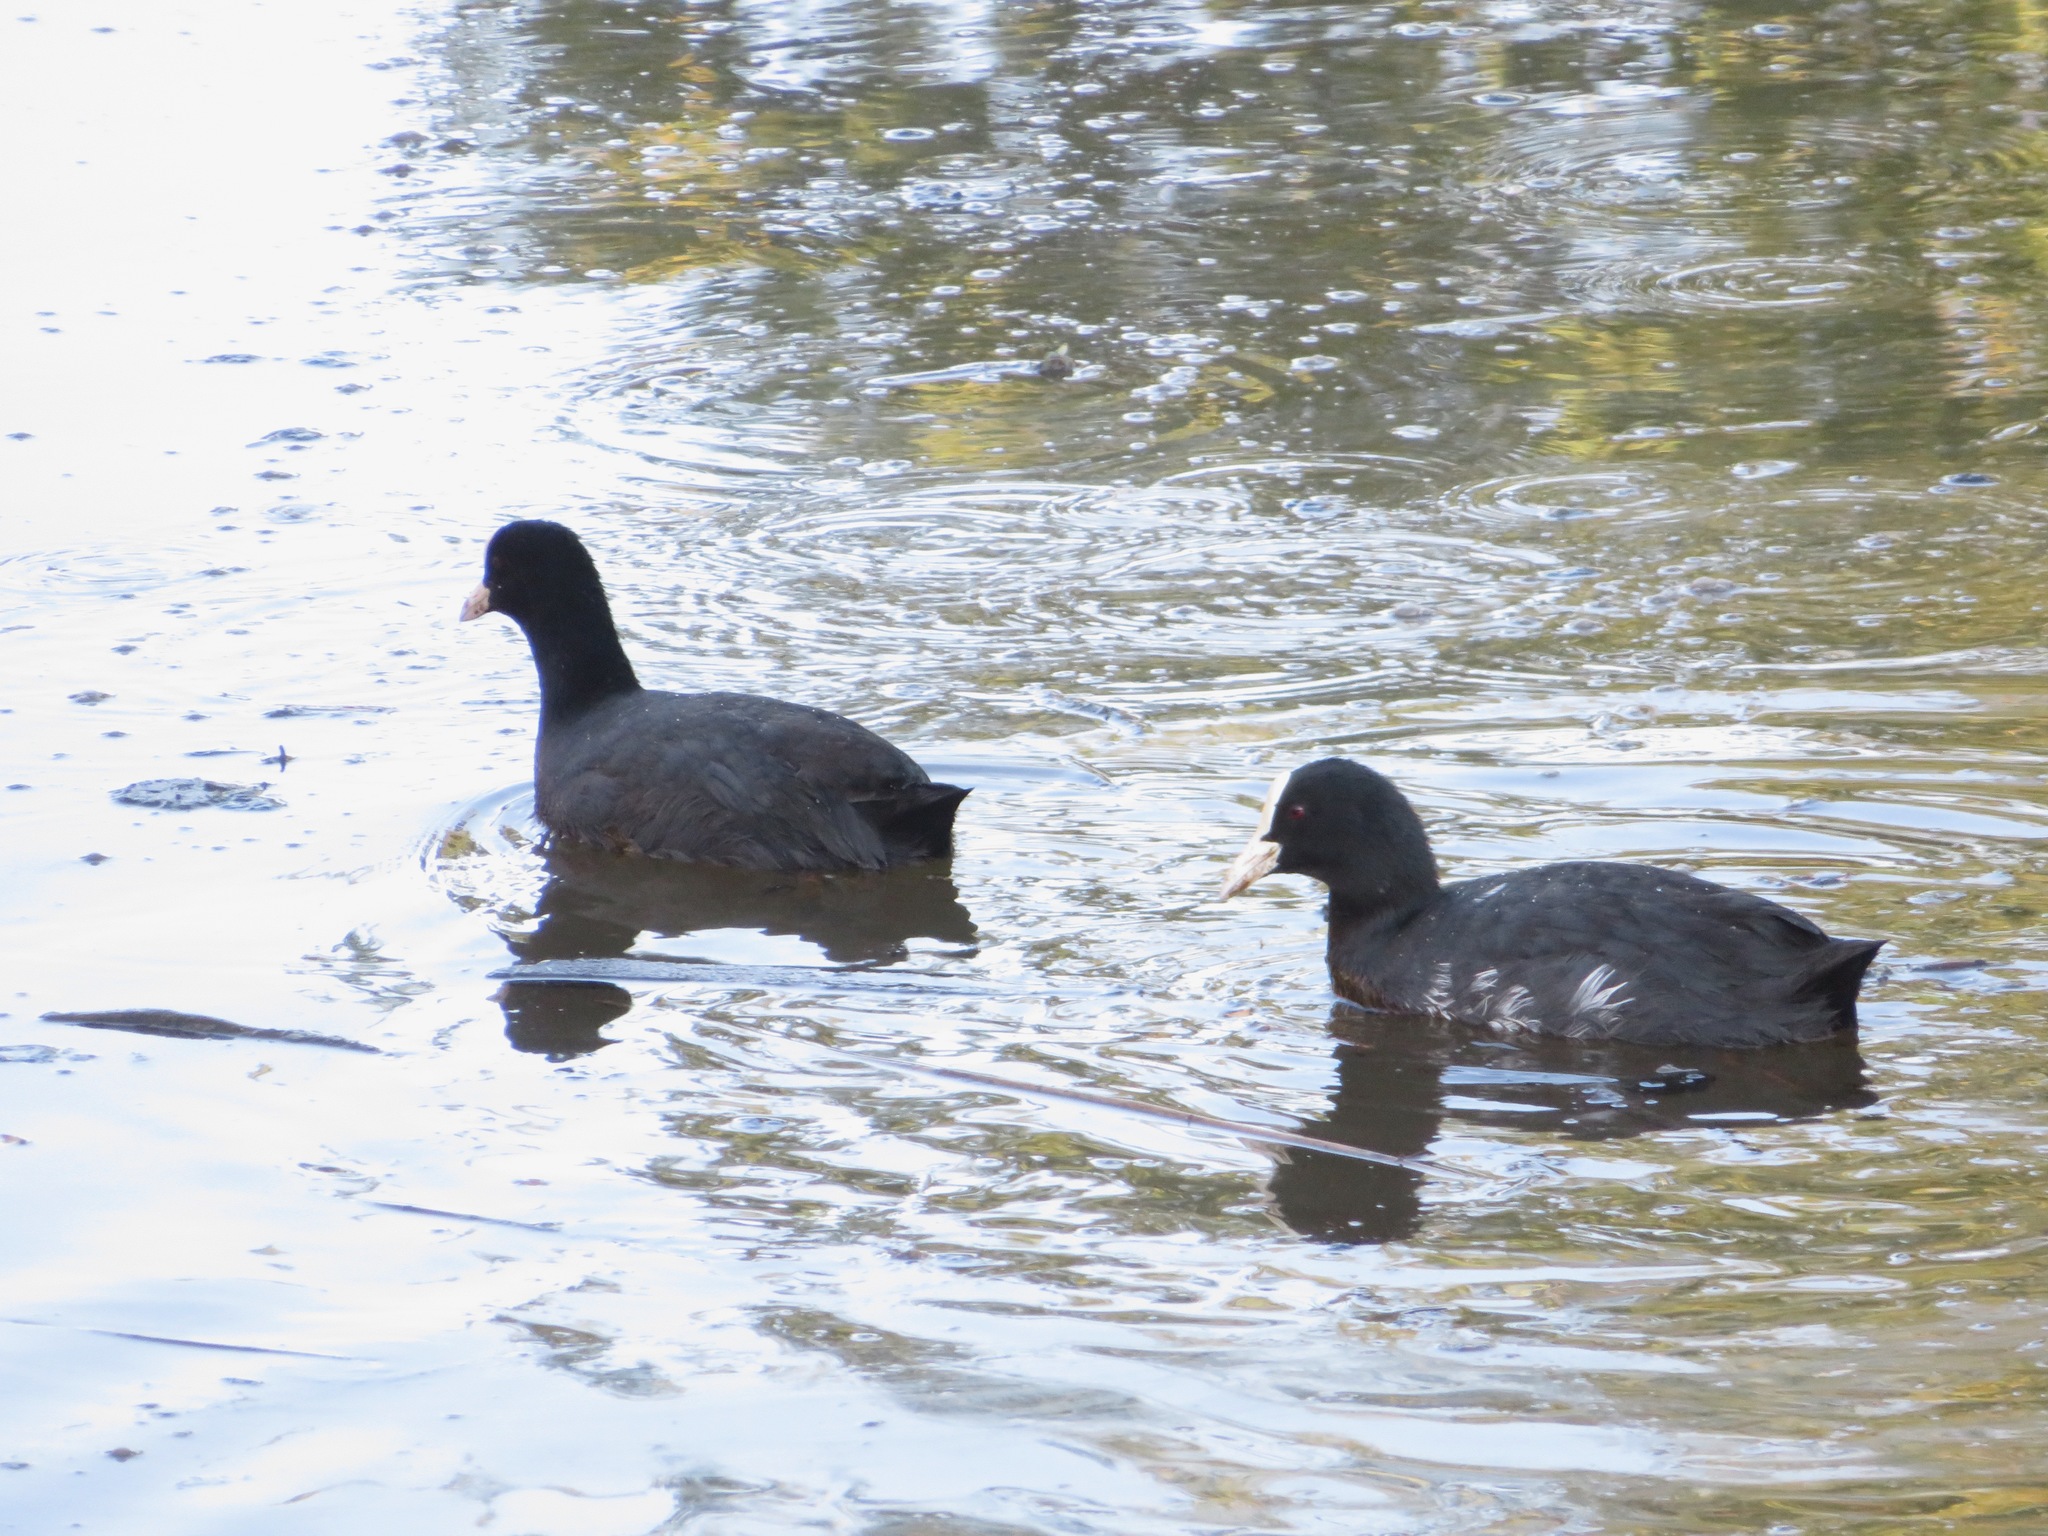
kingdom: Animalia
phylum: Chordata
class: Aves
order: Gruiformes
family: Rallidae
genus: Fulica
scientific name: Fulica atra
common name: Eurasian coot
